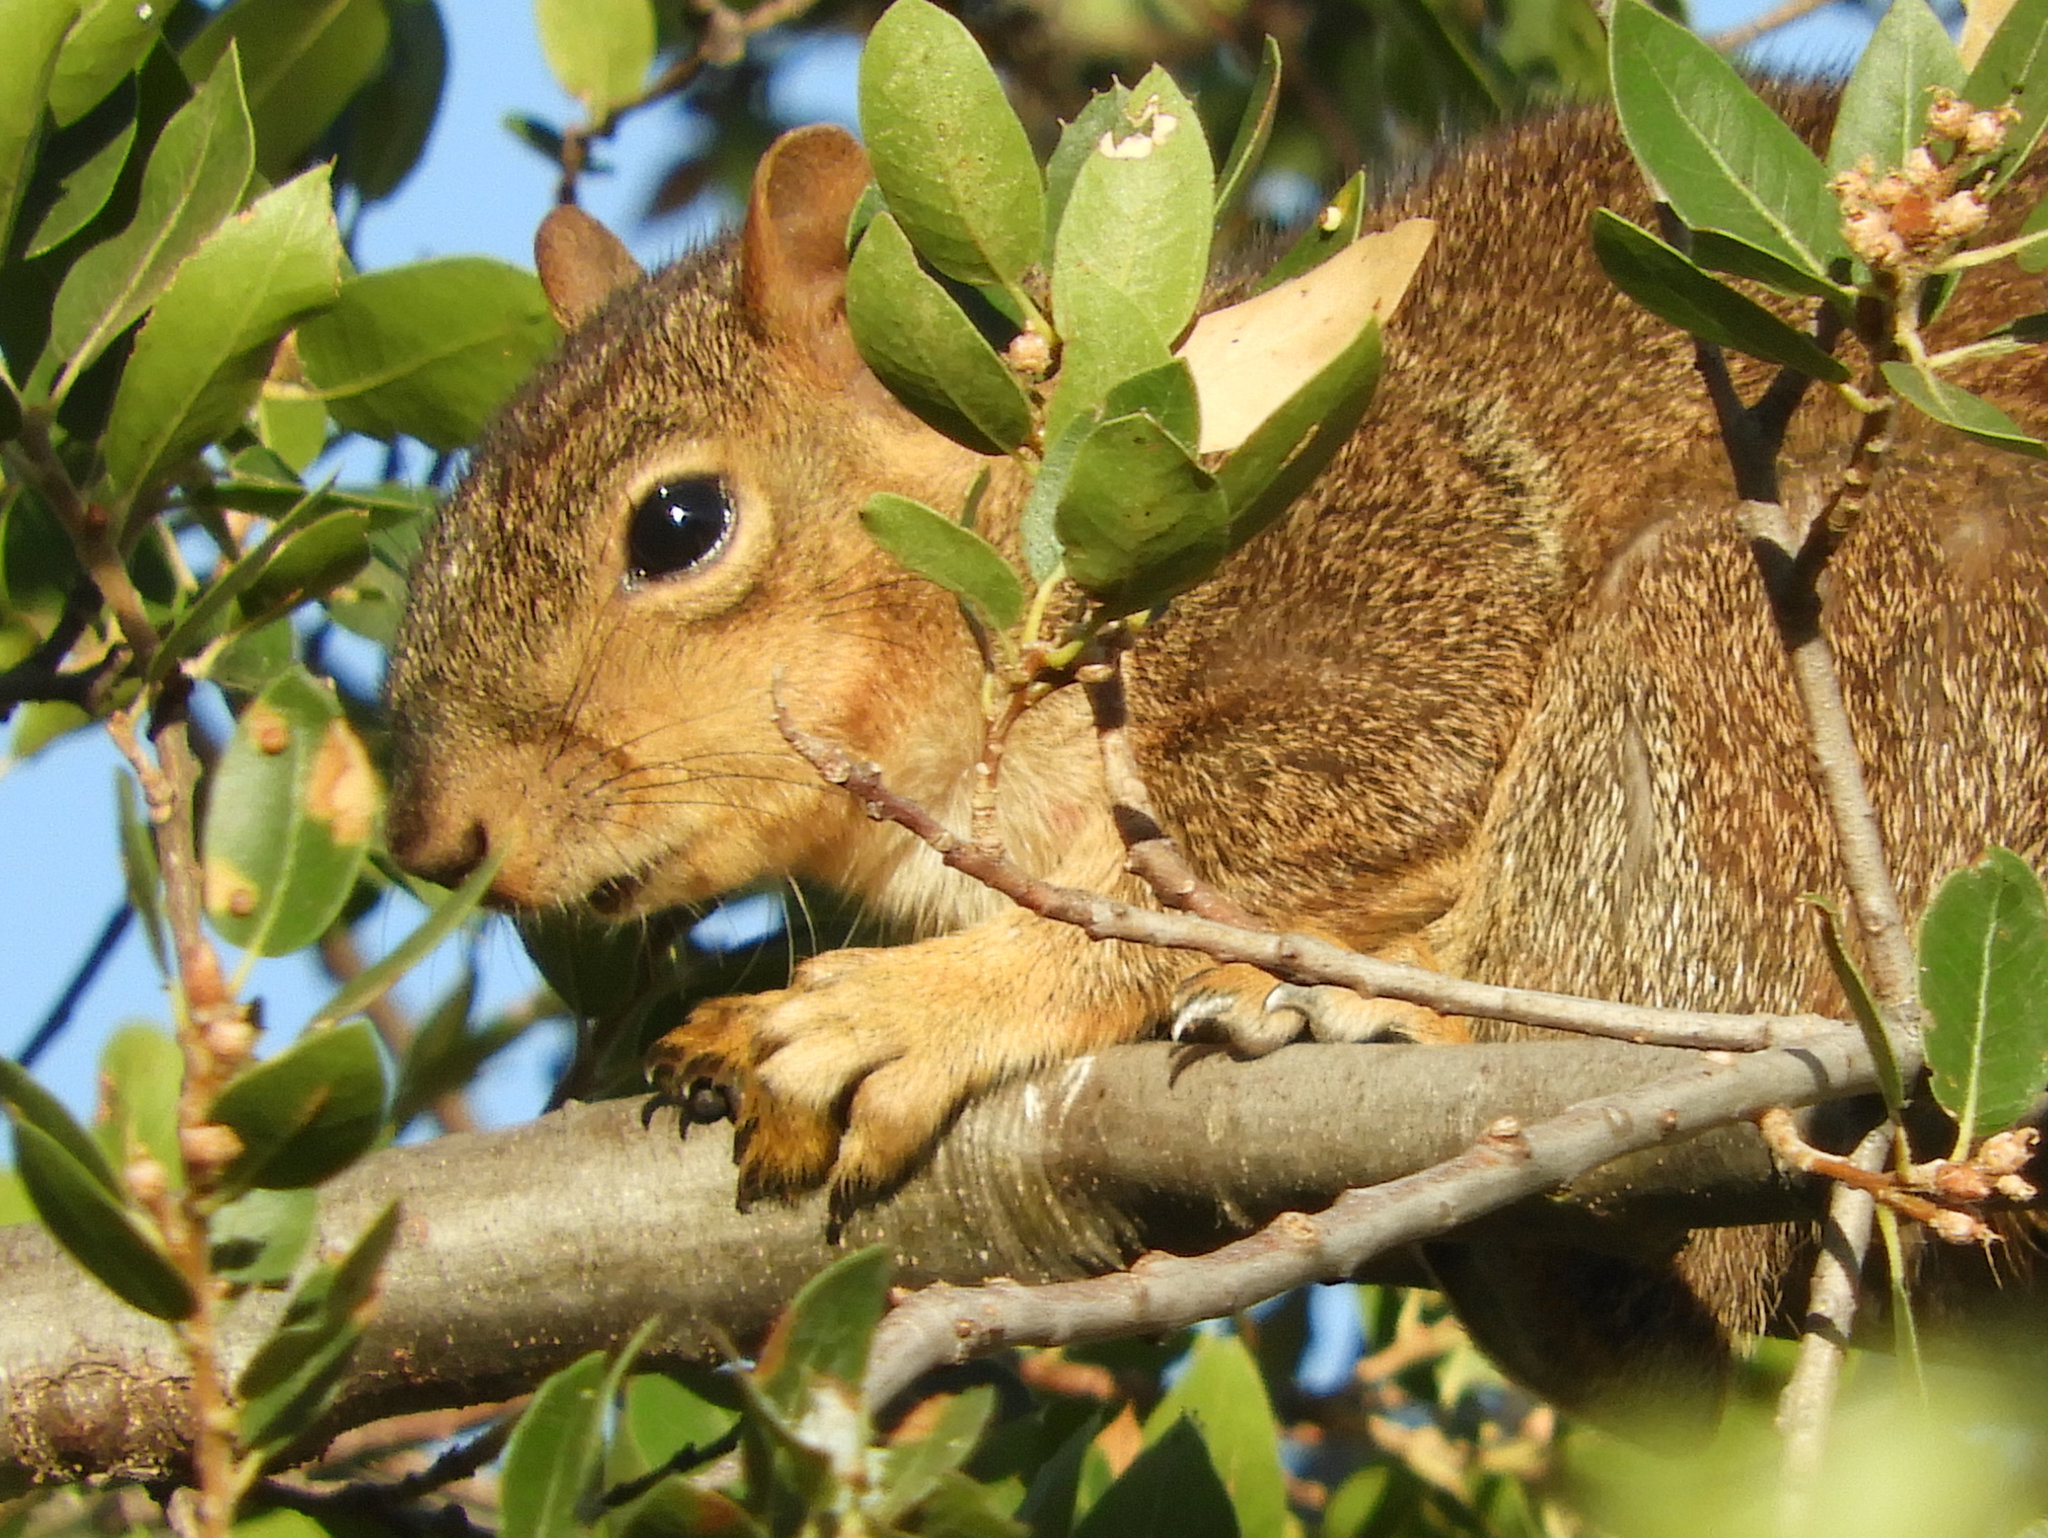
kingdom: Animalia
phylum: Chordata
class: Mammalia
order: Rodentia
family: Sciuridae
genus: Sciurus
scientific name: Sciurus niger
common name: Fox squirrel
